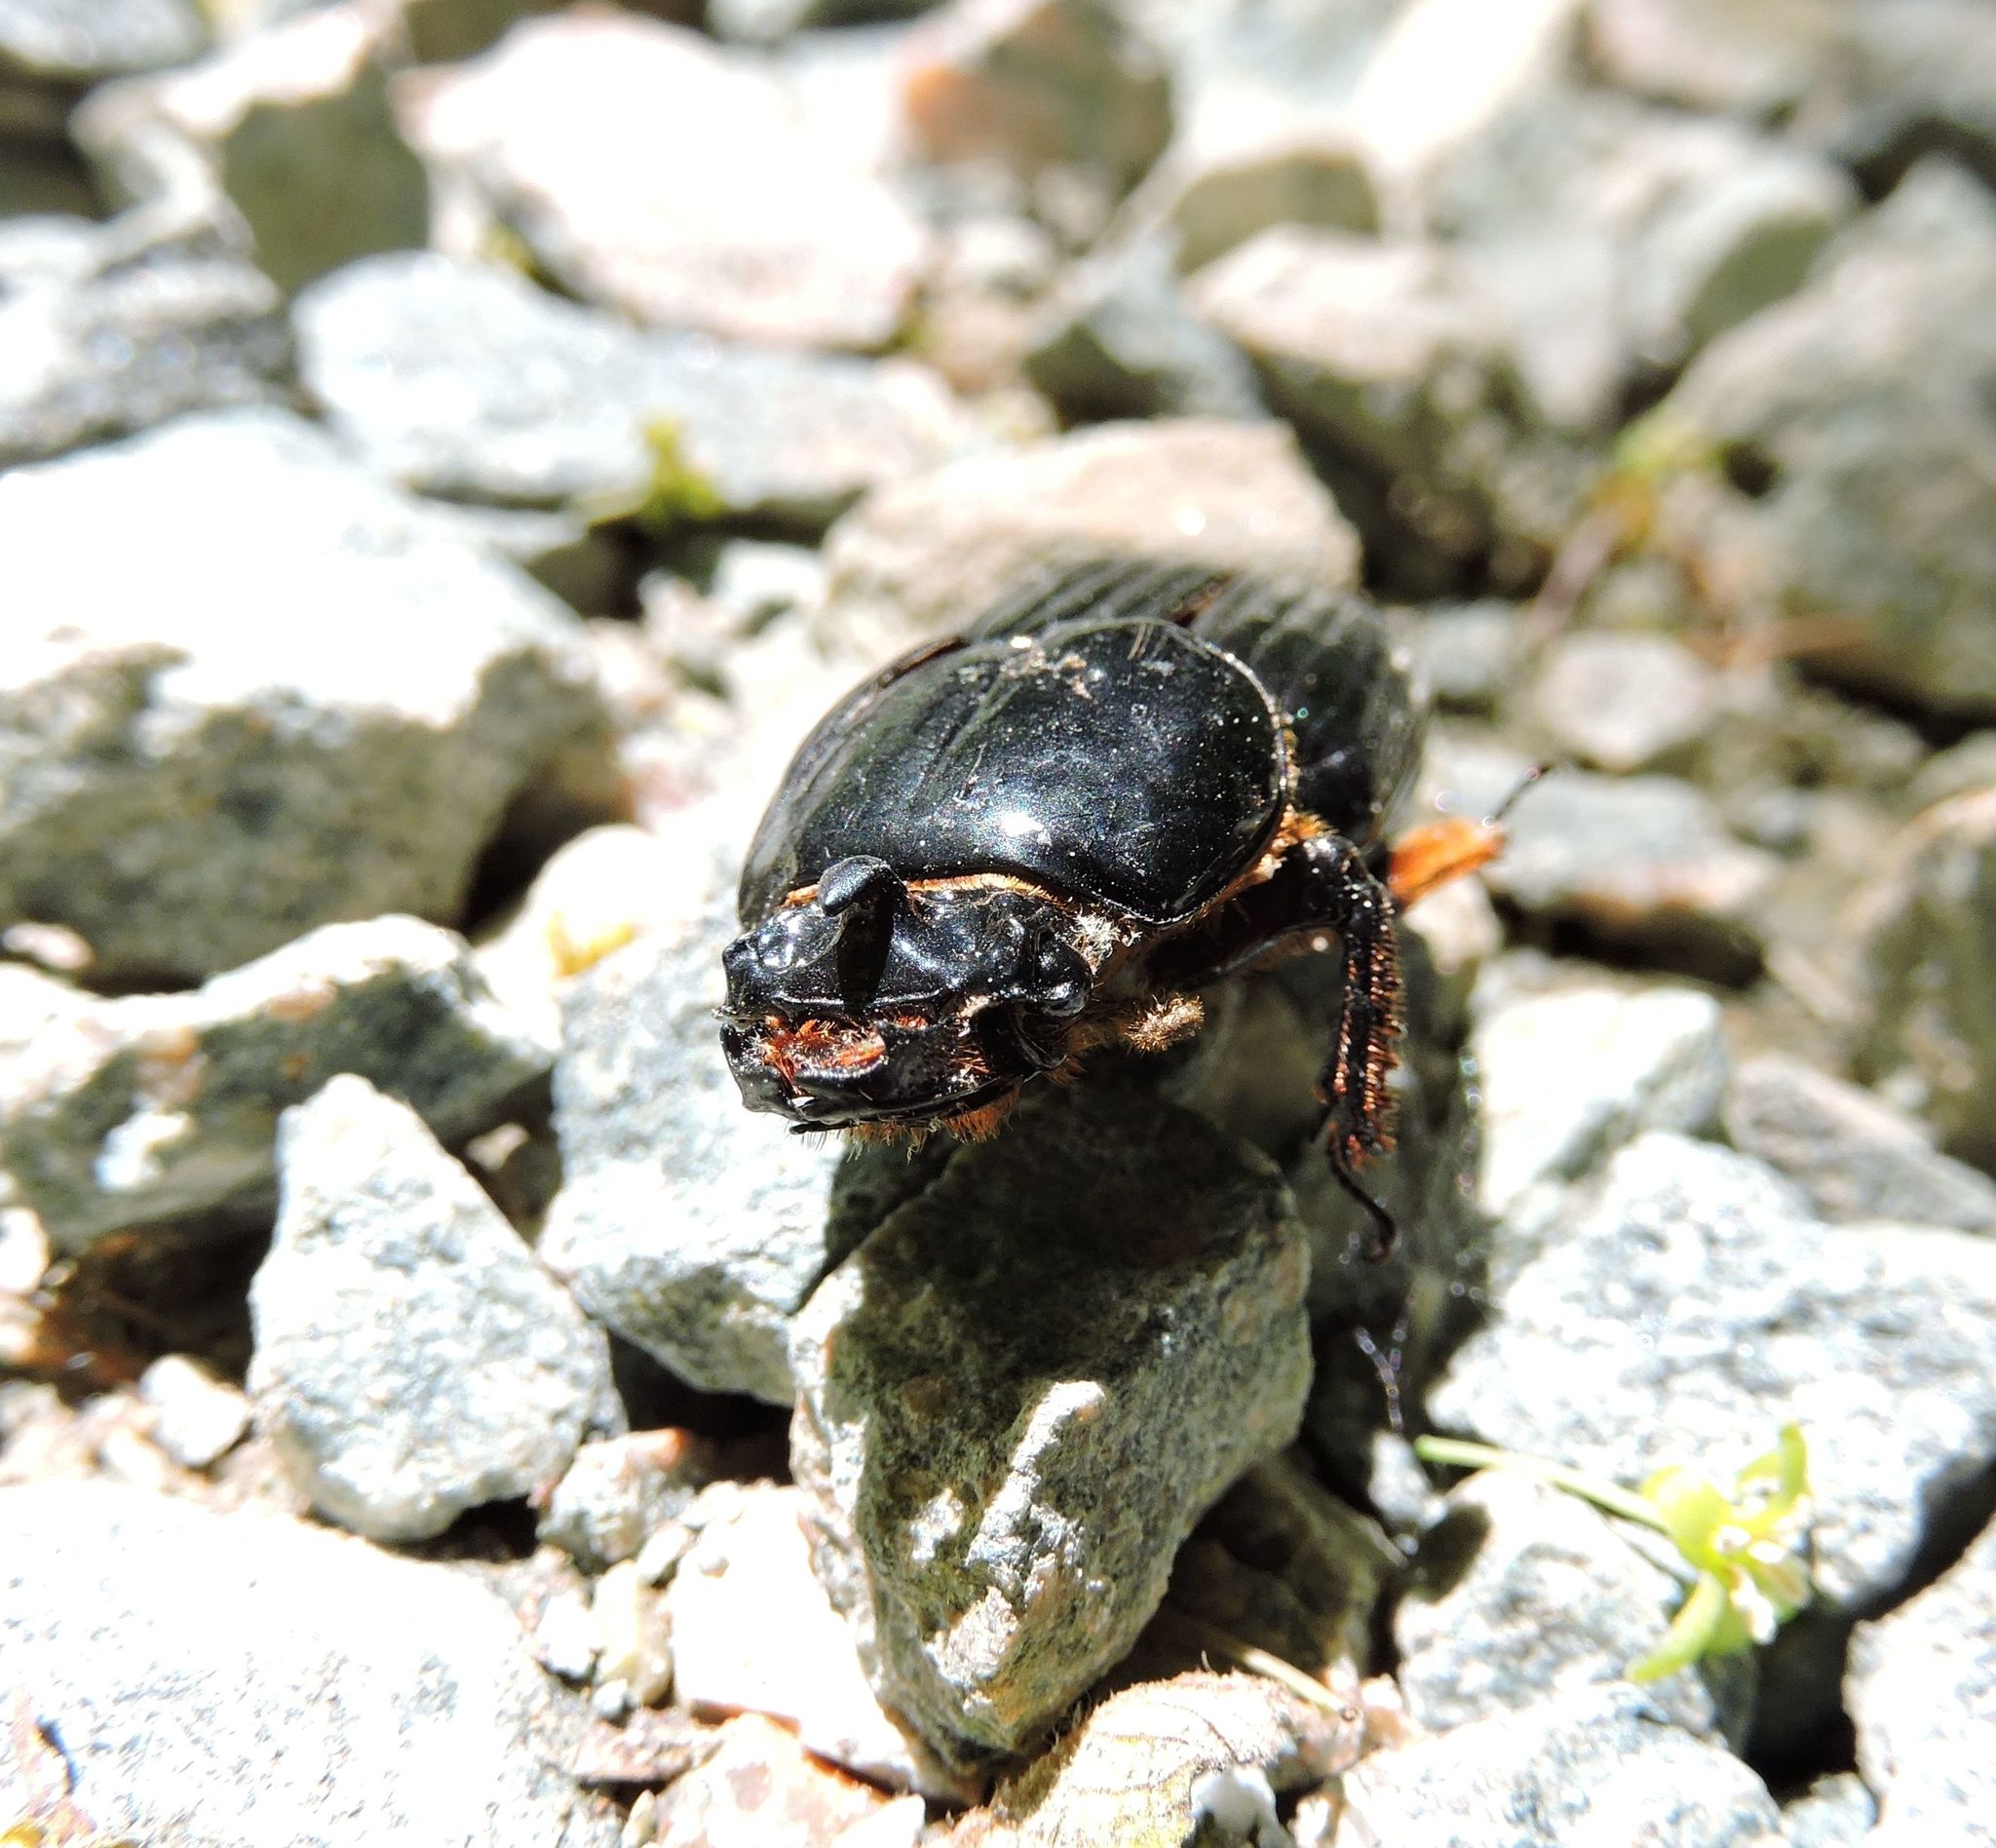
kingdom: Animalia
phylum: Arthropoda
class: Insecta
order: Coleoptera
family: Passalidae
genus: Odontotaenius
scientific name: Odontotaenius disjunctus
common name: Patent leather beetle
